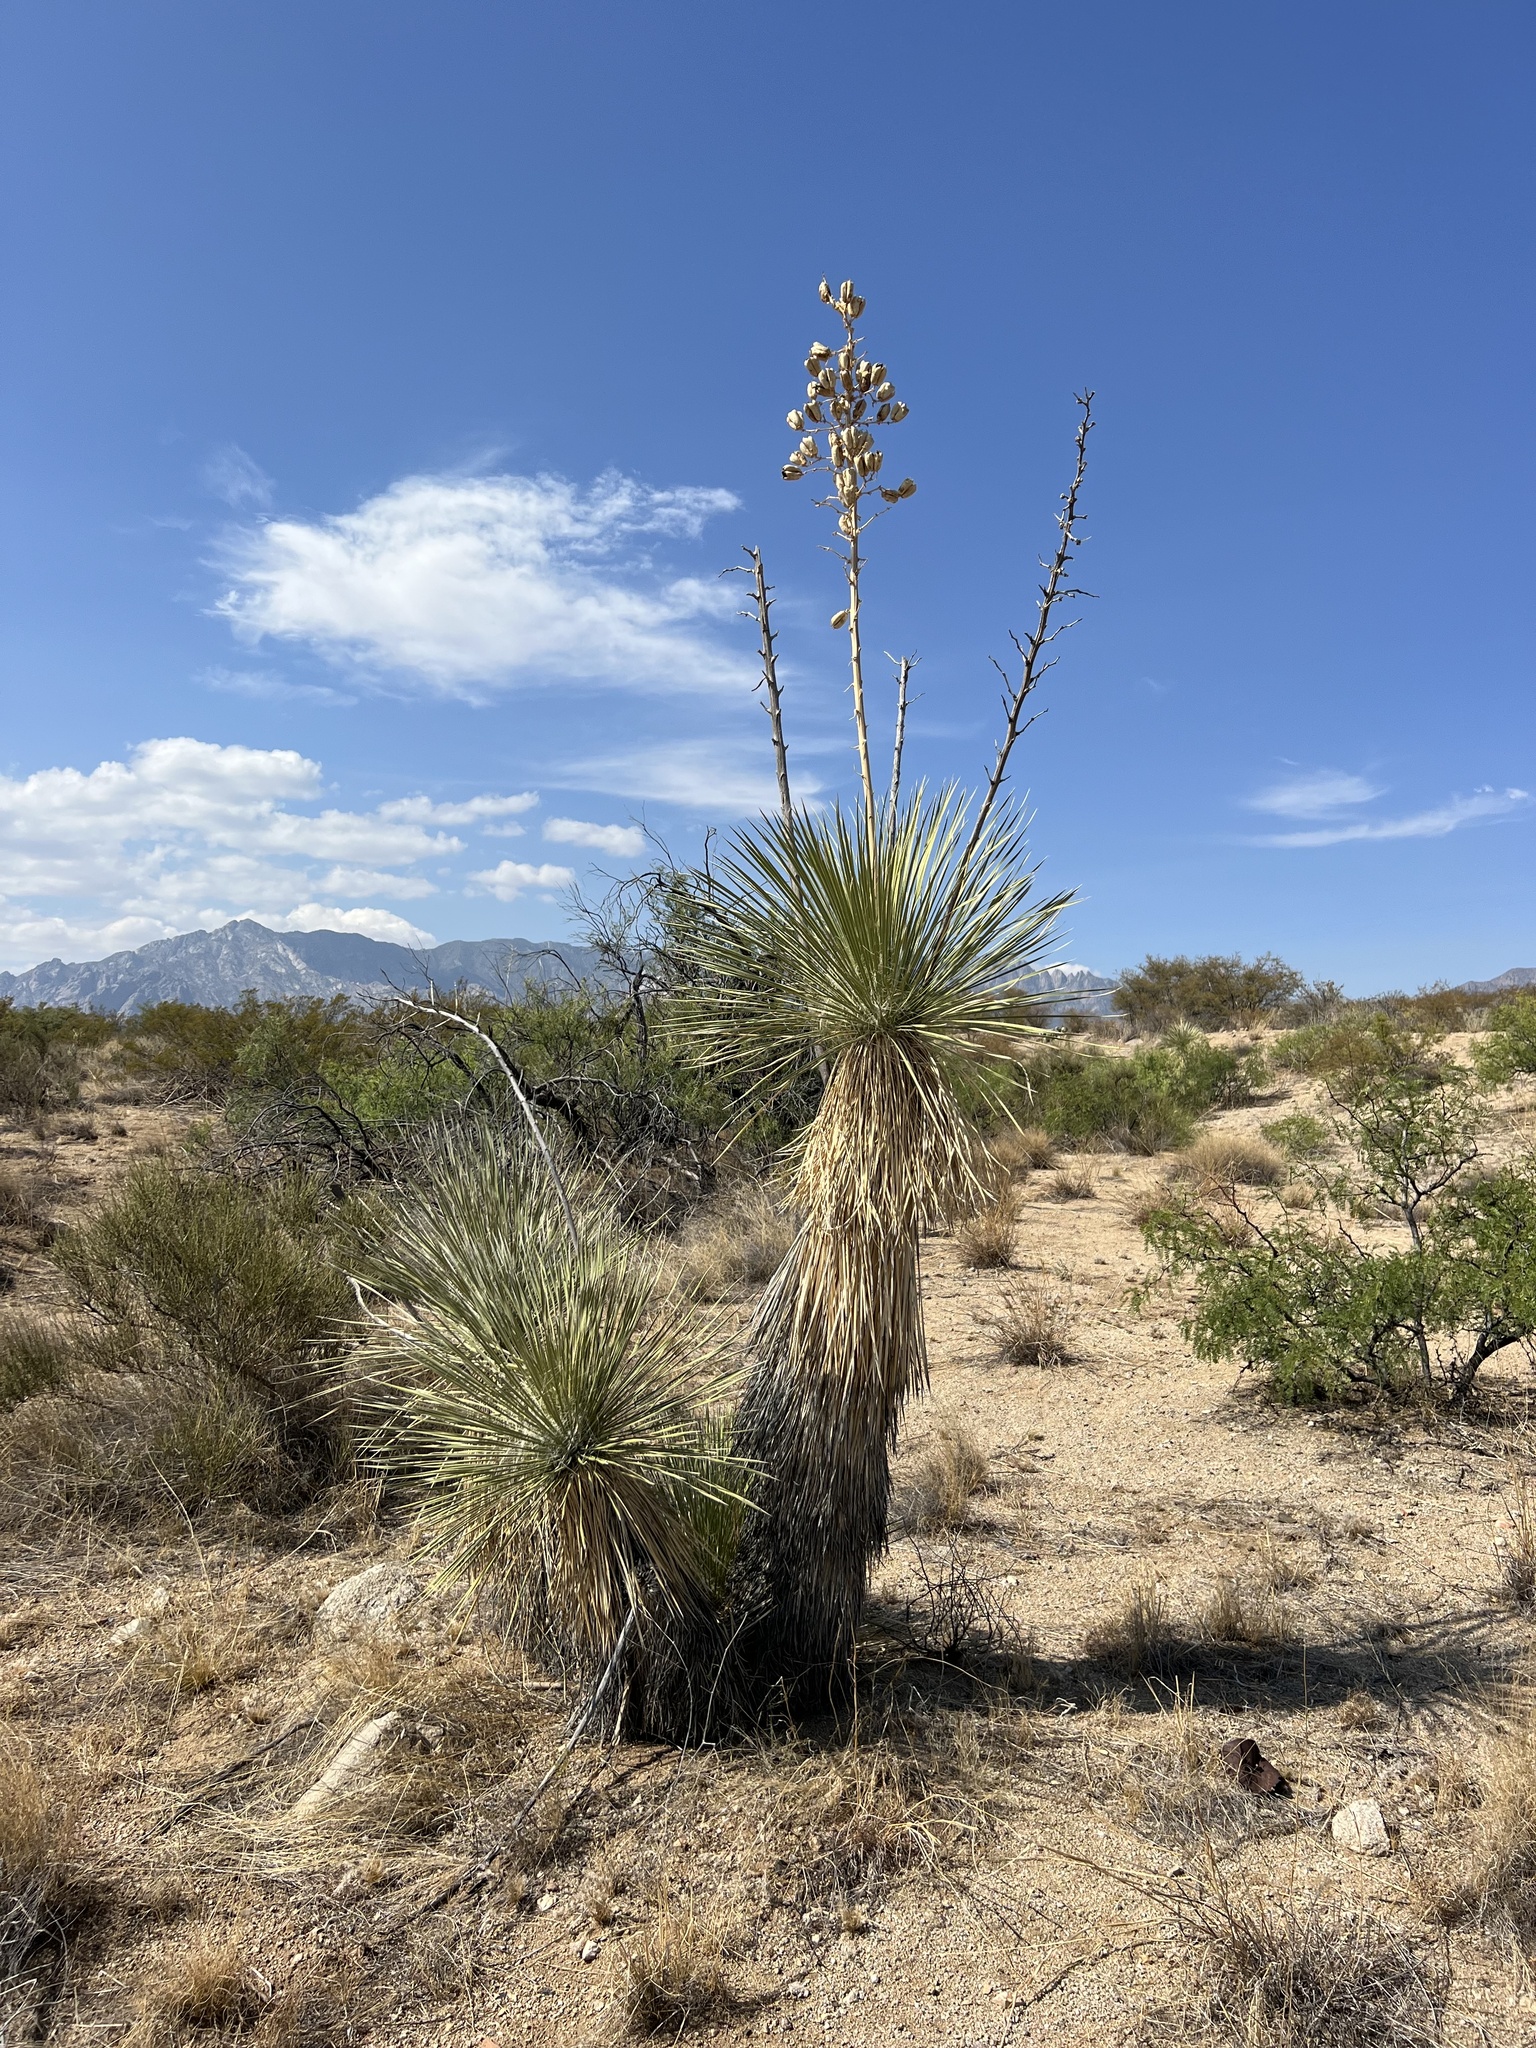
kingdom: Plantae
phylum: Tracheophyta
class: Liliopsida
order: Asparagales
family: Asparagaceae
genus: Yucca
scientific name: Yucca elata
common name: Palmella
